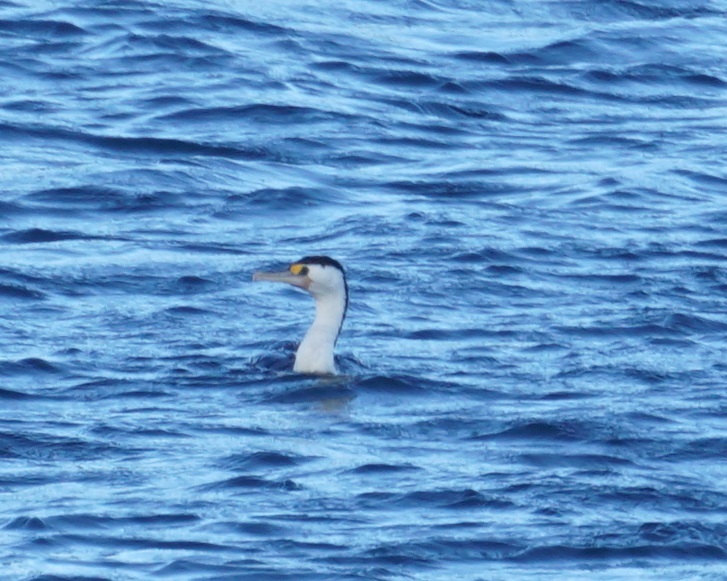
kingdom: Animalia
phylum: Chordata
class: Aves
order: Suliformes
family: Phalacrocoracidae
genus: Phalacrocorax
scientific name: Phalacrocorax varius
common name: Pied cormorant
